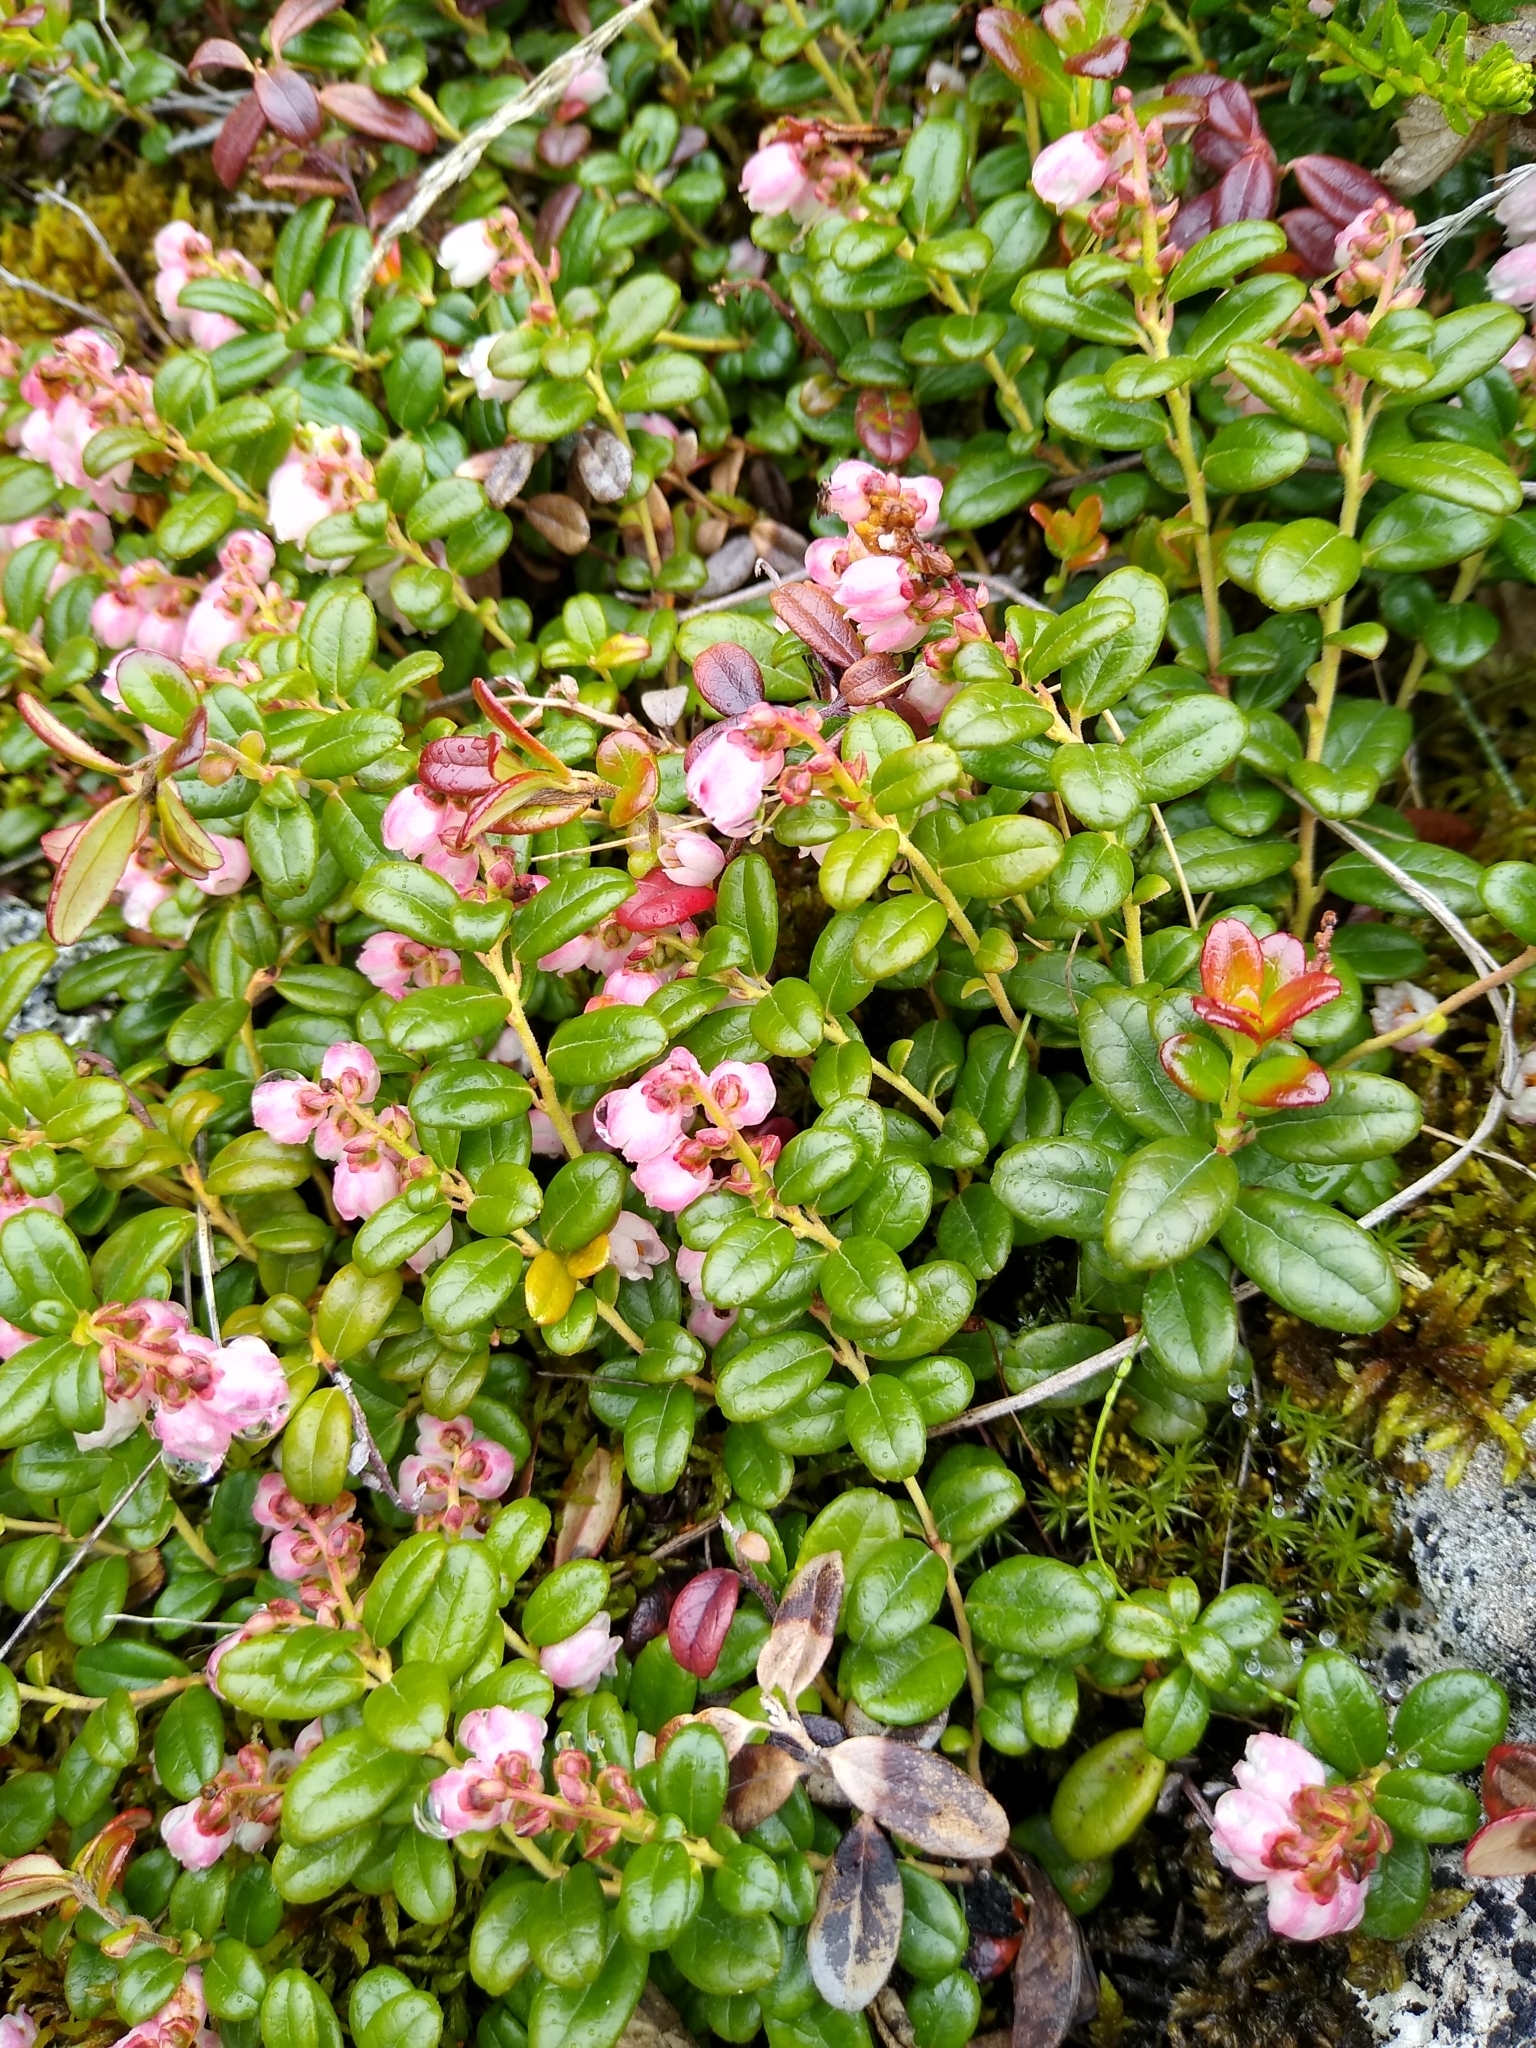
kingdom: Plantae
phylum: Tracheophyta
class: Magnoliopsida
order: Ericales
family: Ericaceae
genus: Vaccinium
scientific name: Vaccinium vitis-idaea
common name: Cowberry
